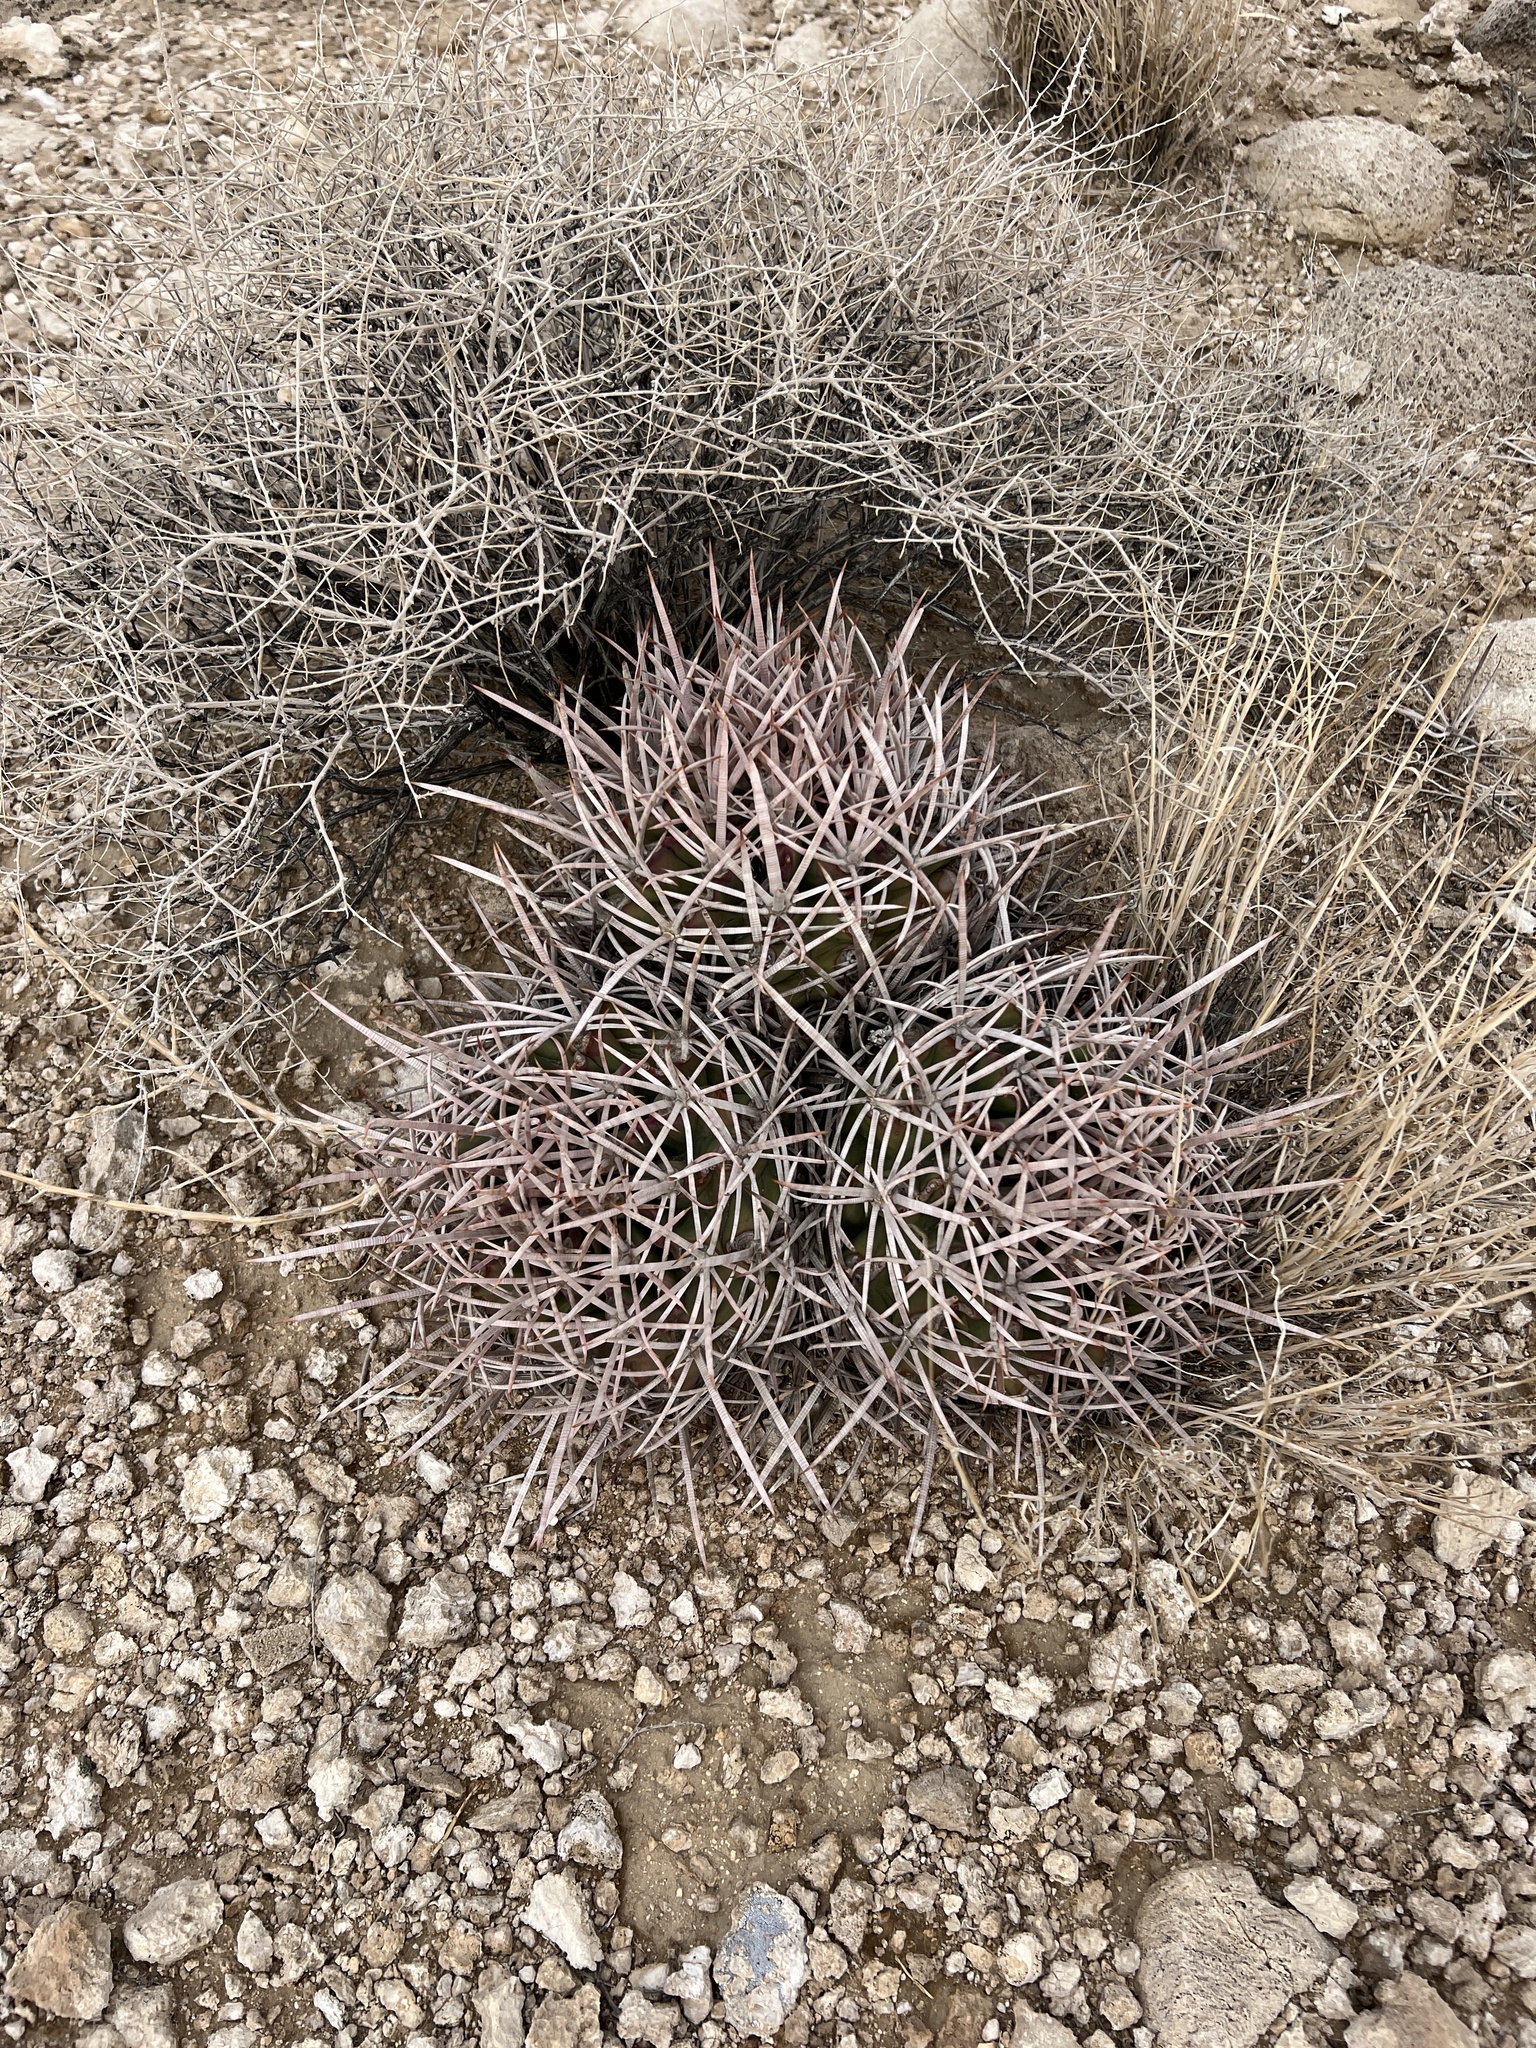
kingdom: Plantae
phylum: Tracheophyta
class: Magnoliopsida
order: Caryophyllales
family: Cactaceae
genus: Echinocactus
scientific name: Echinocactus polycephalus
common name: Cottontop cactus
